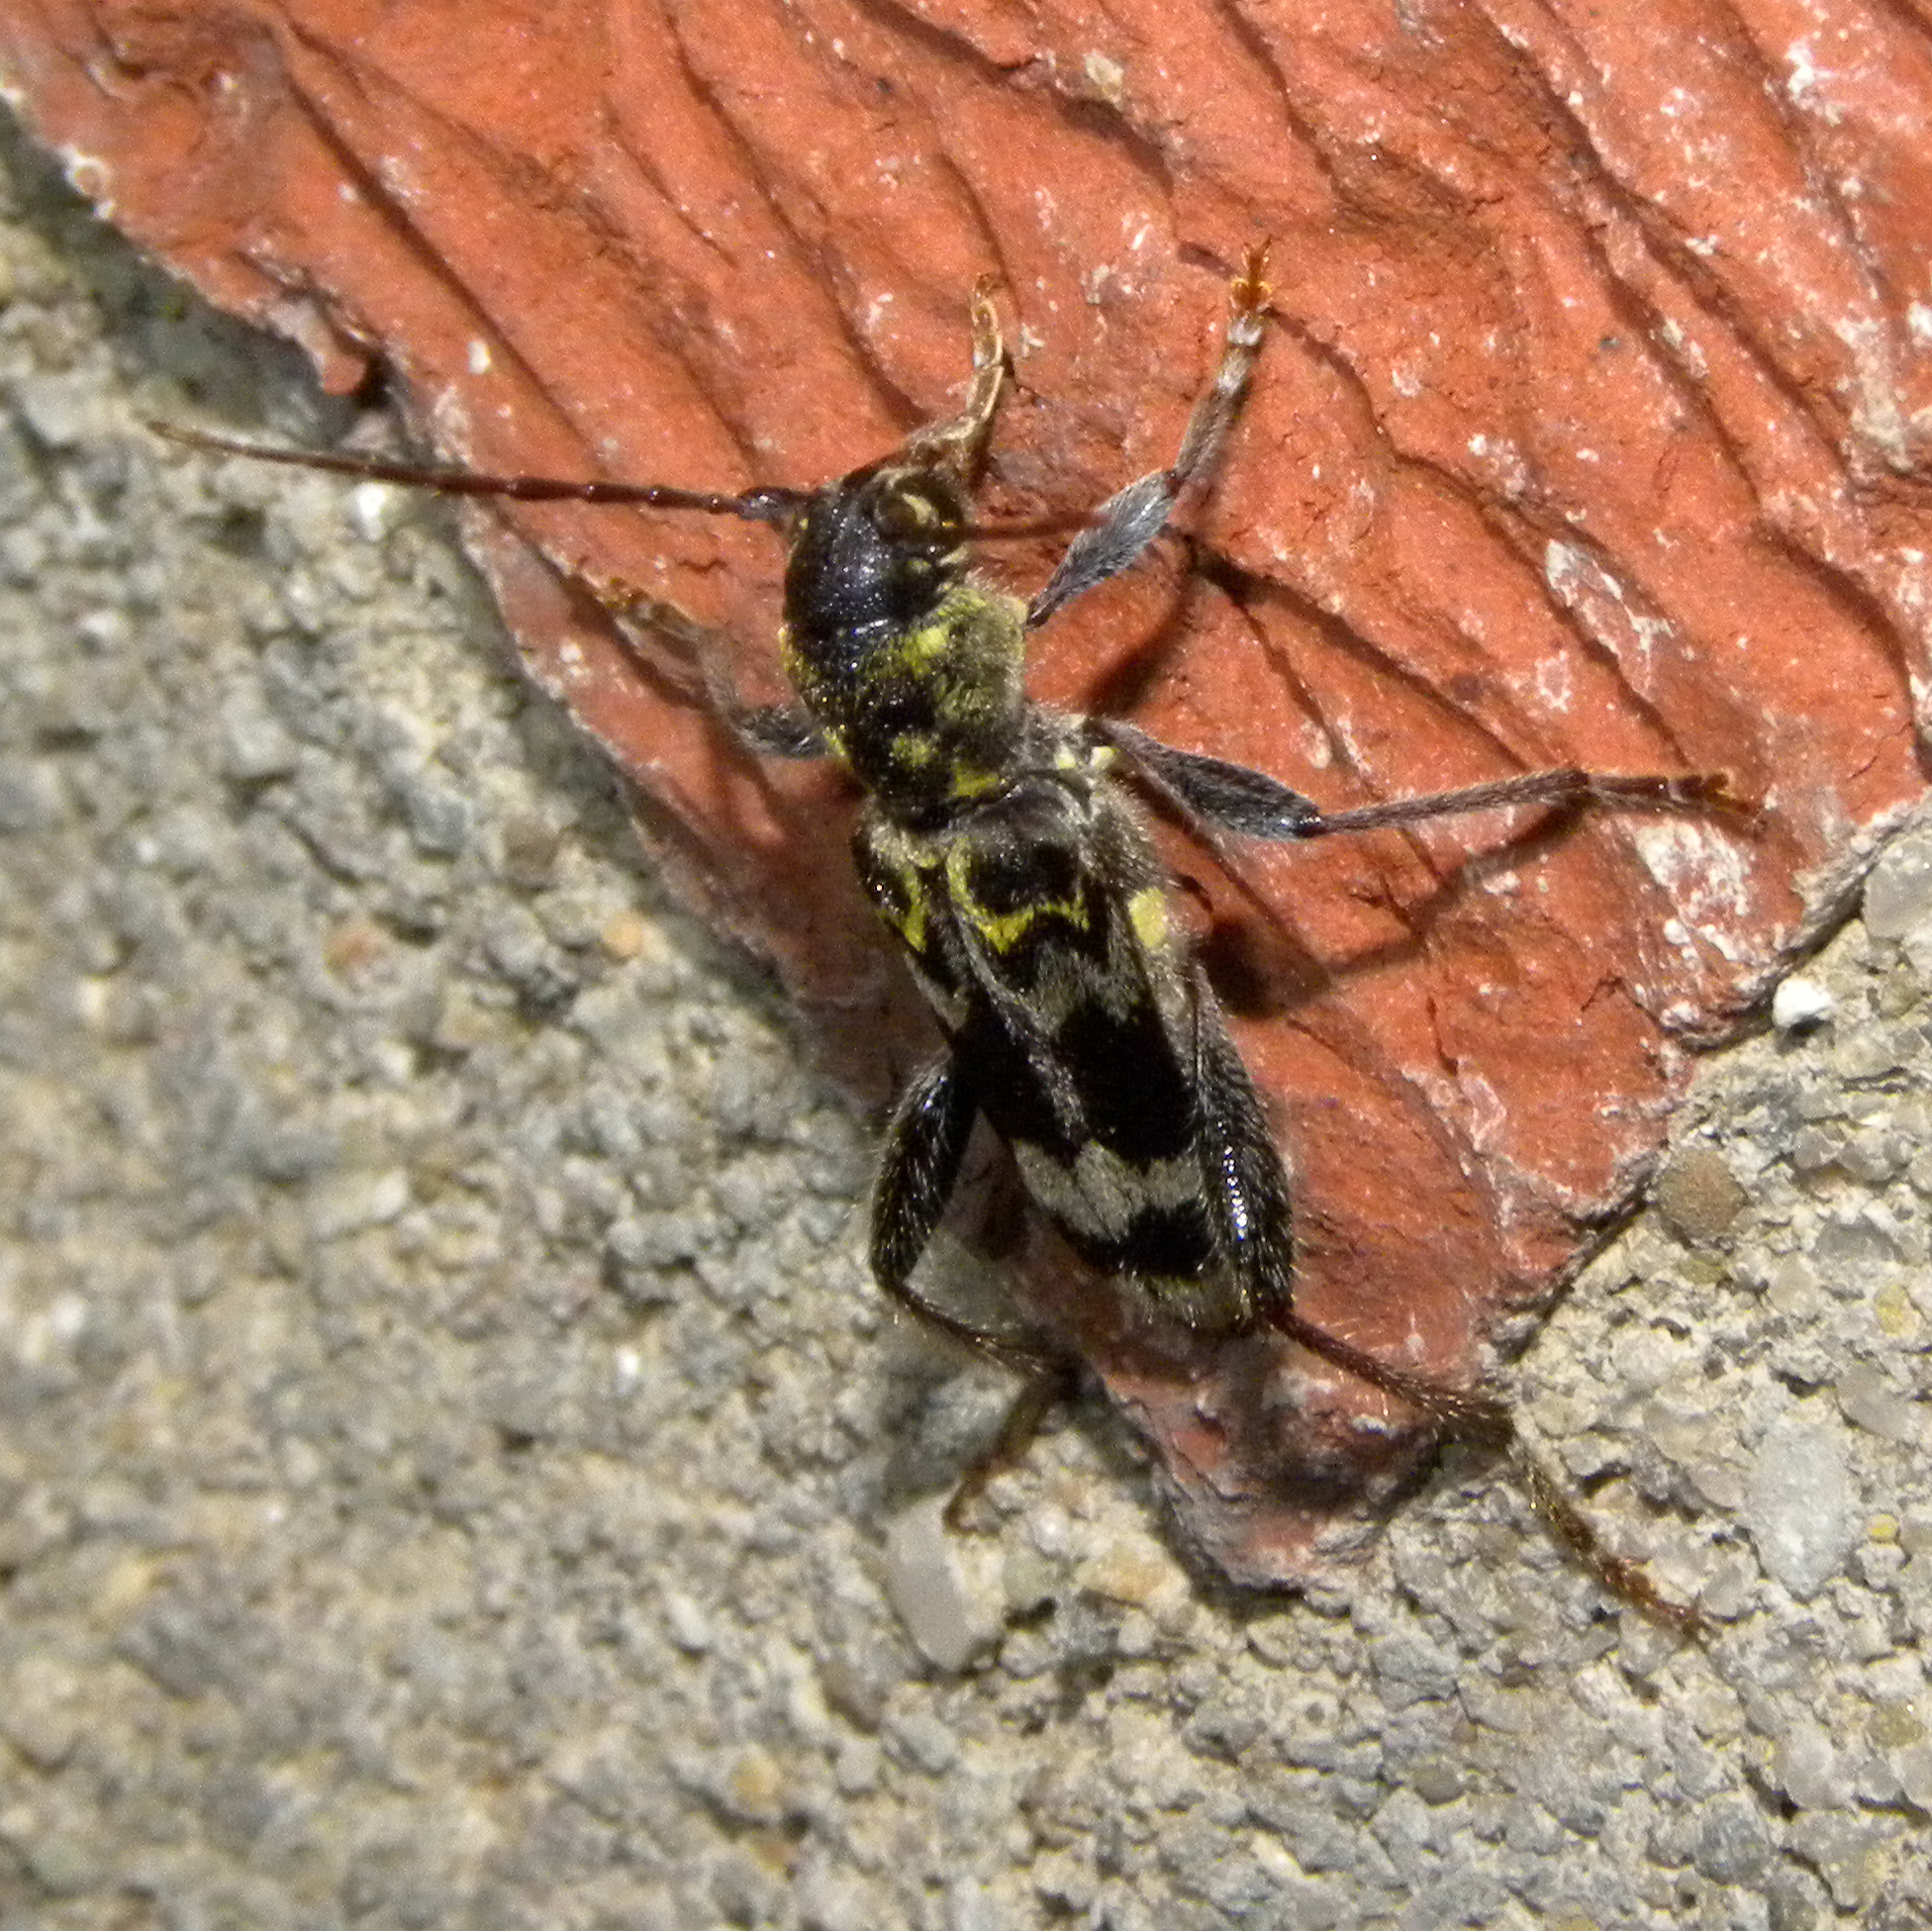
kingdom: Animalia
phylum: Arthropoda
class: Insecta
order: Coleoptera
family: Cerambycidae
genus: Xylotrechus
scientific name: Xylotrechus colonus
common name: Long-horned beetle
